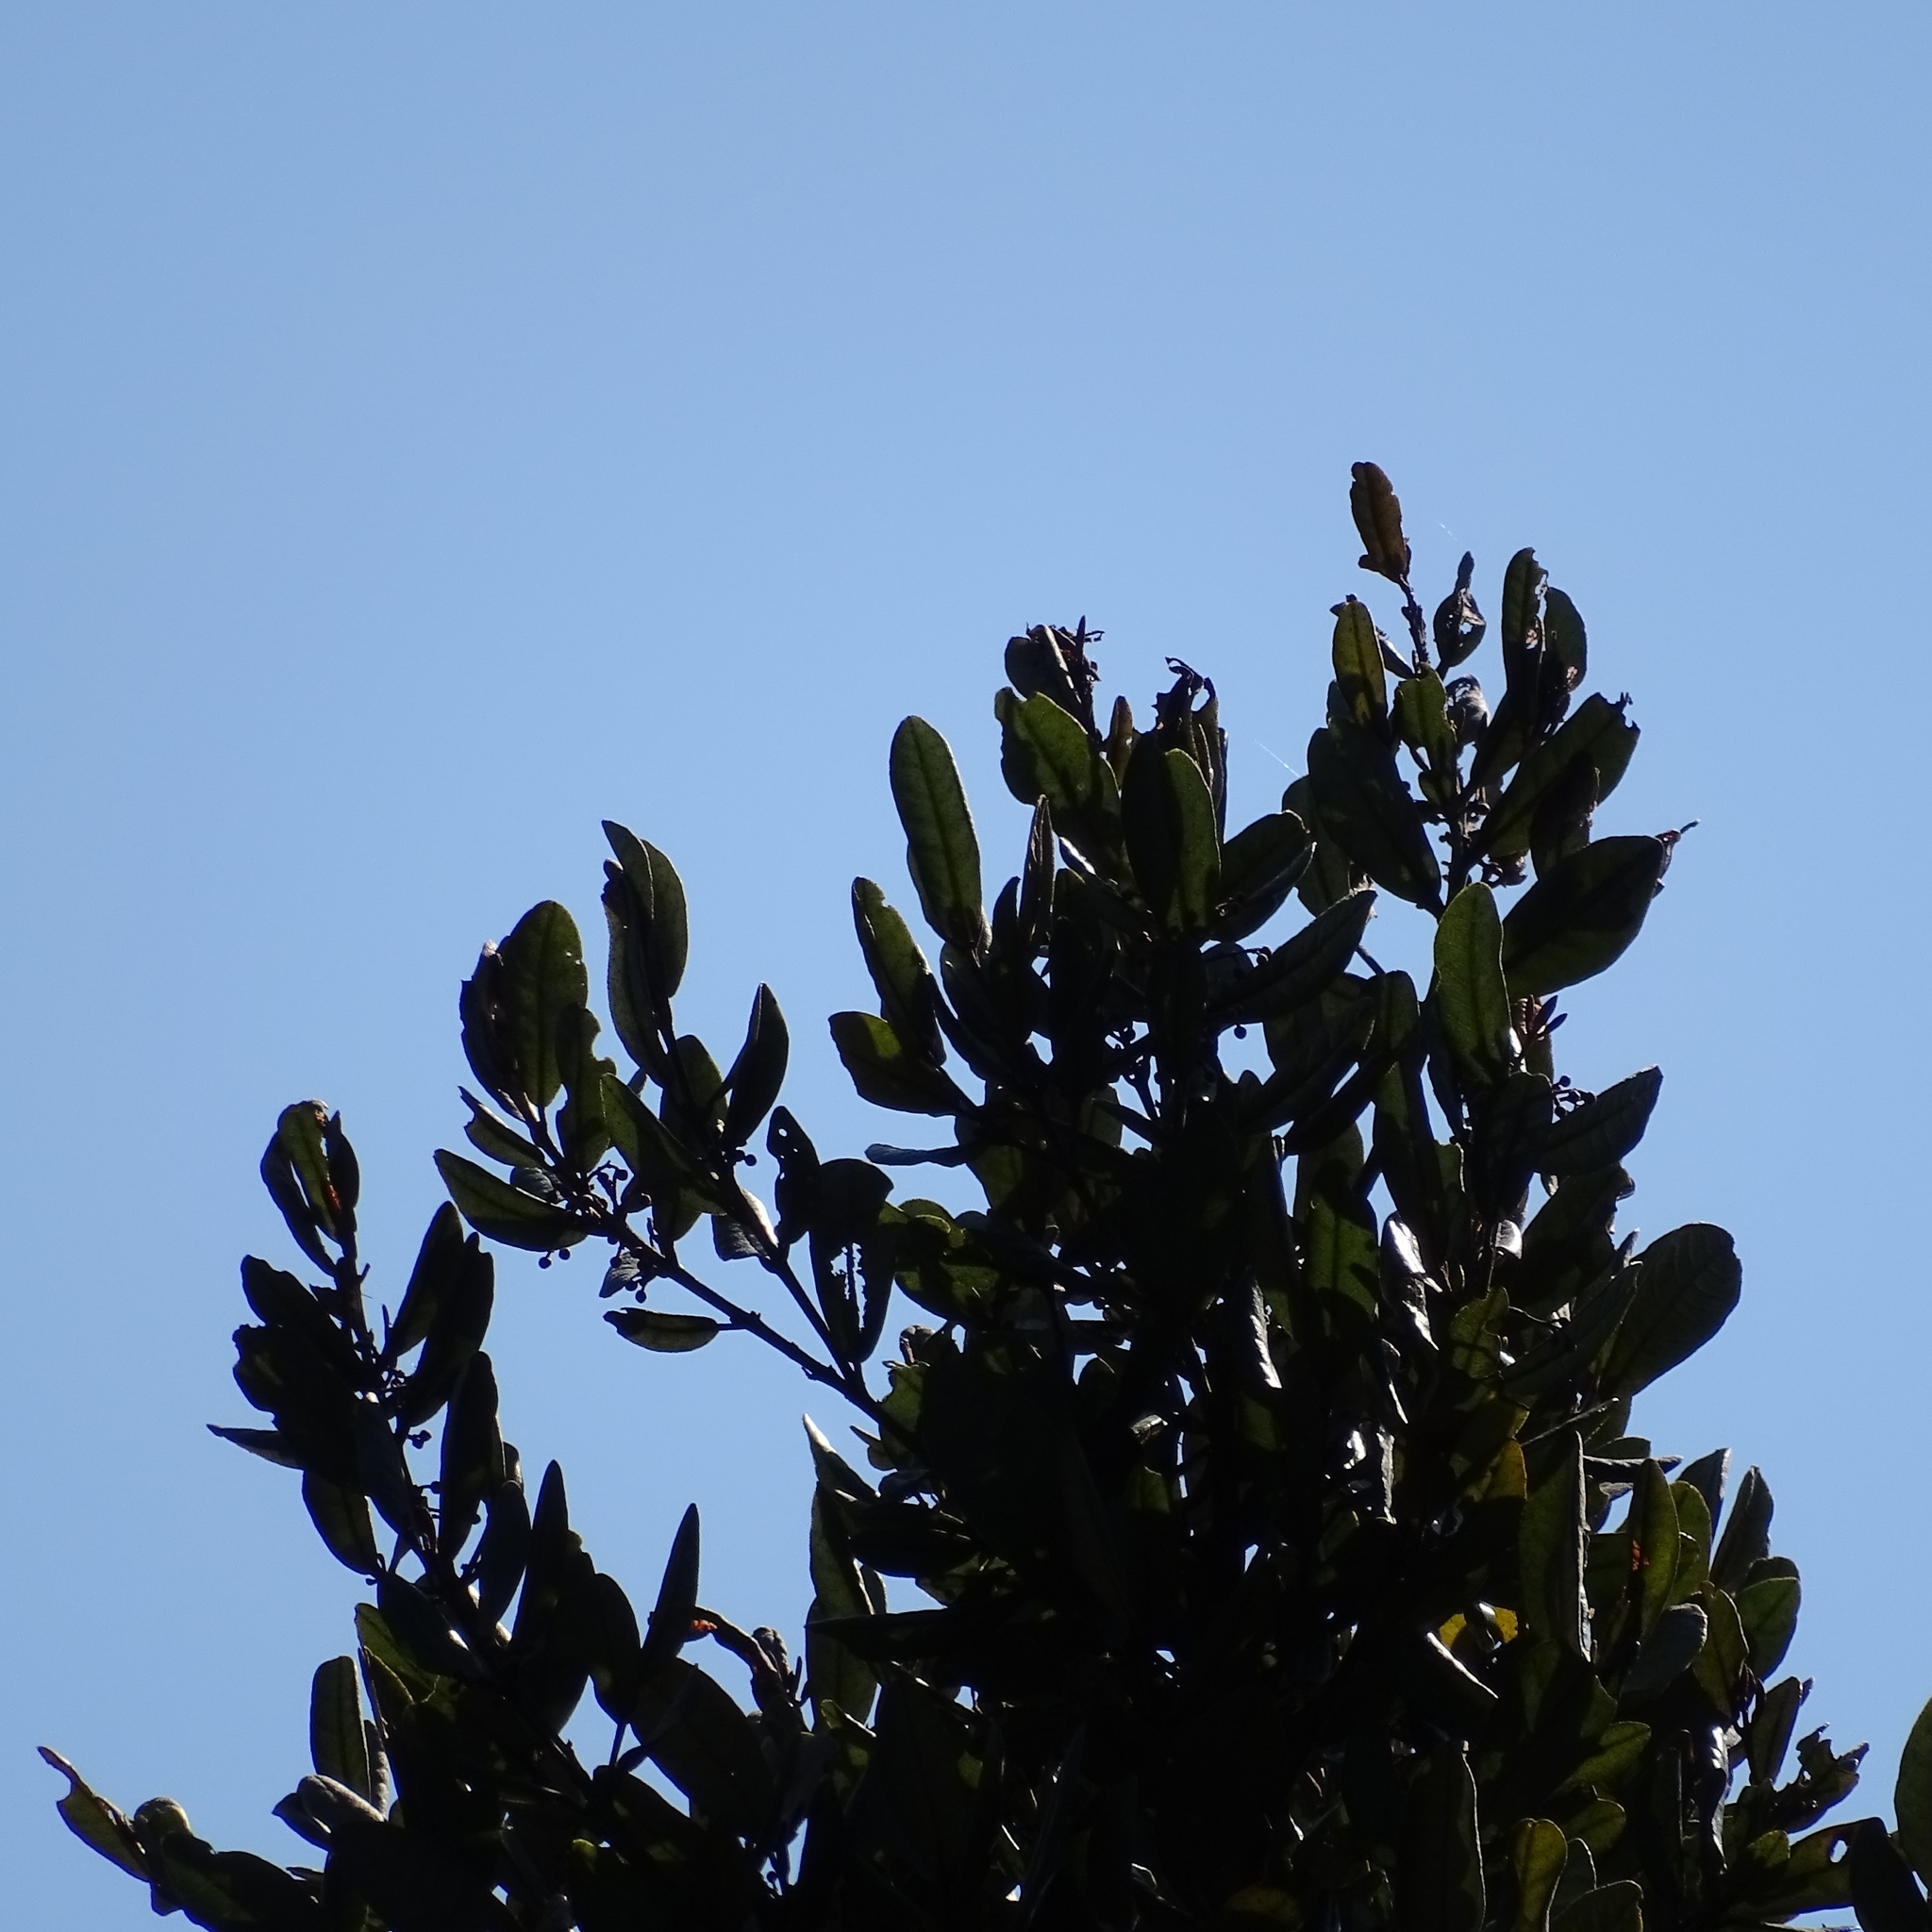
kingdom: Plantae
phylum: Tracheophyta
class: Magnoliopsida
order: Berberidopsidales
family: Aextoxicaceae
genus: Aextoxicon
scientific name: Aextoxicon punctatum
